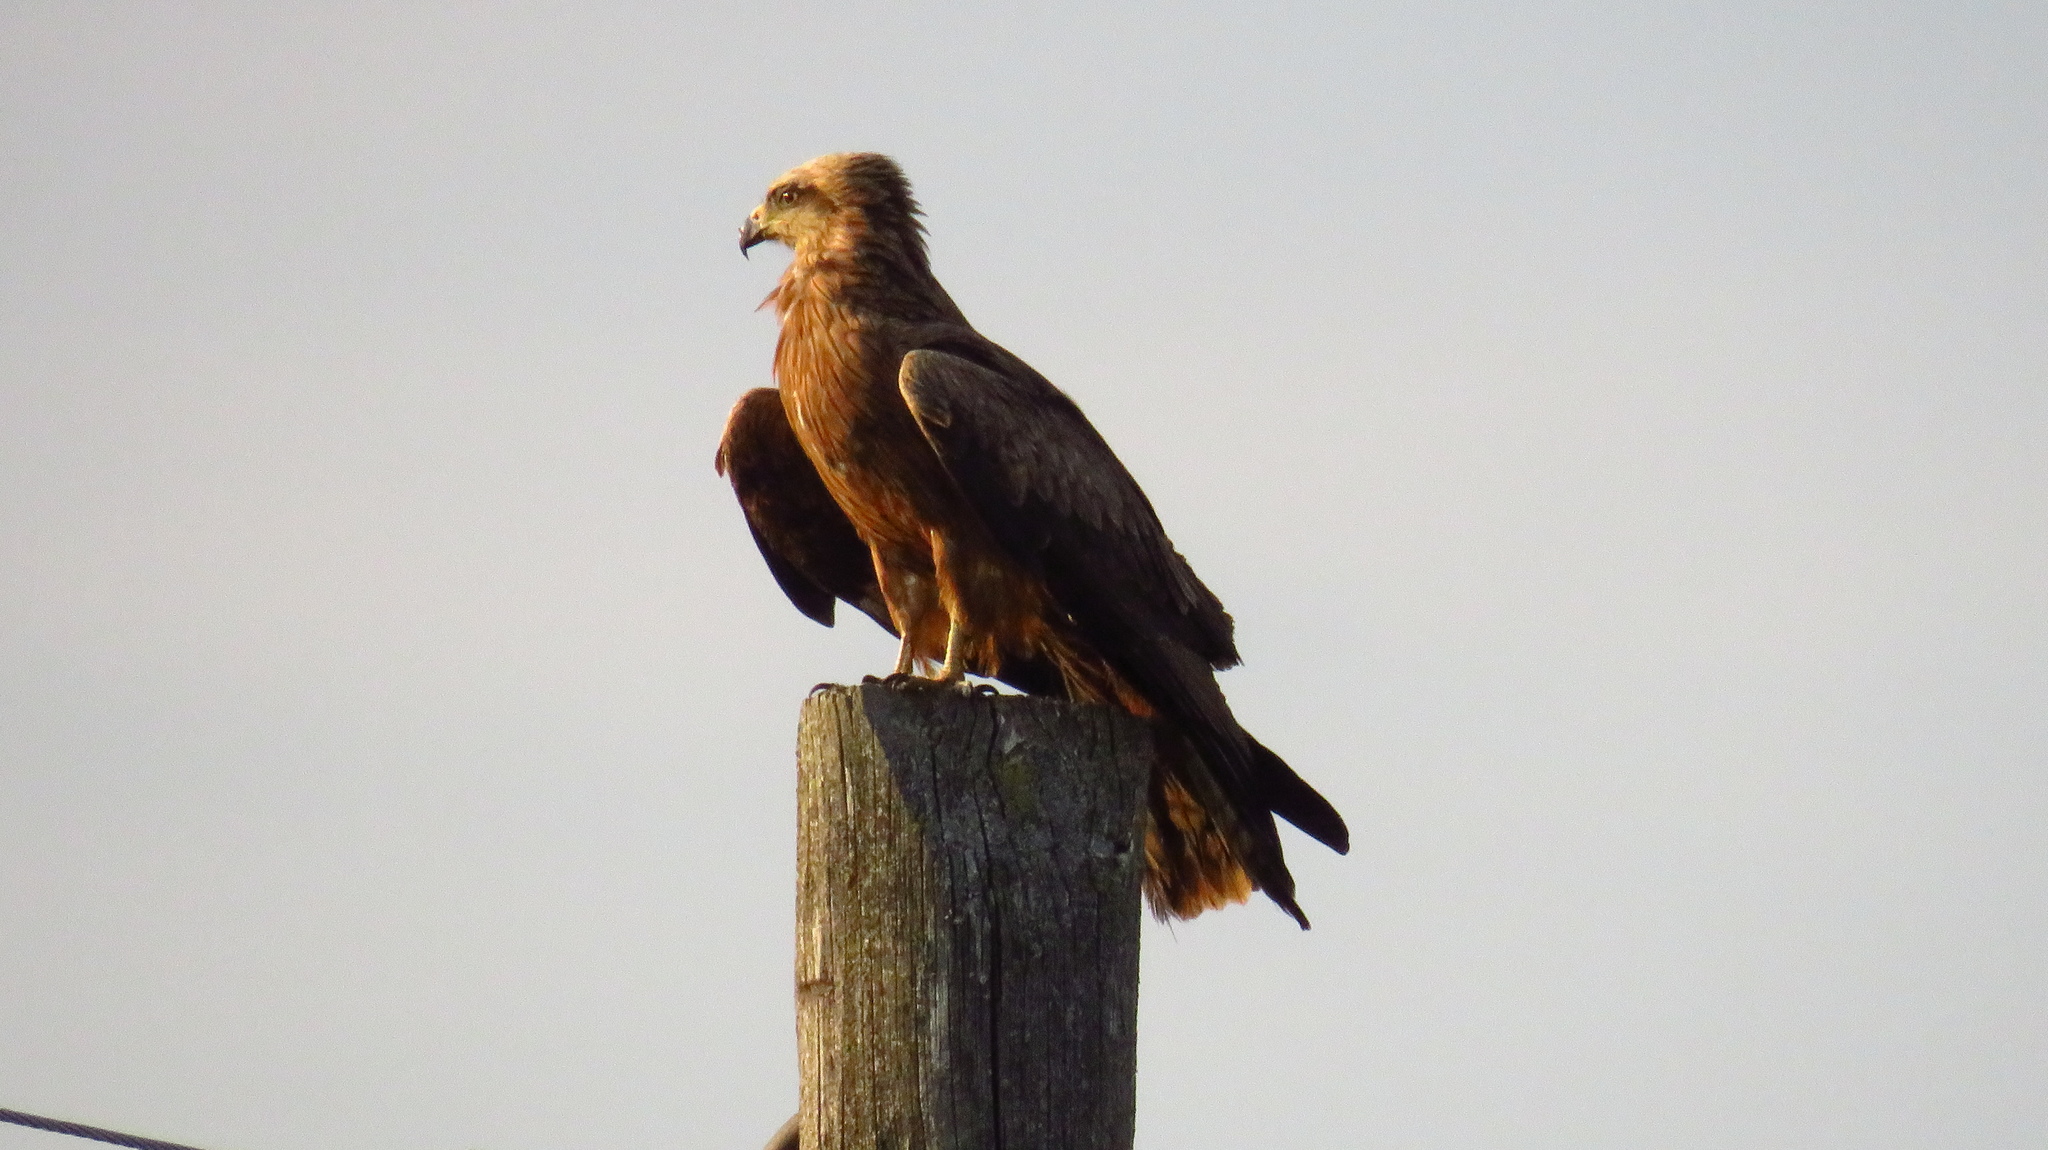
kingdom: Animalia
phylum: Chordata
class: Aves
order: Accipitriformes
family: Accipitridae
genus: Milvus
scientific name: Milvus migrans
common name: Black kite
